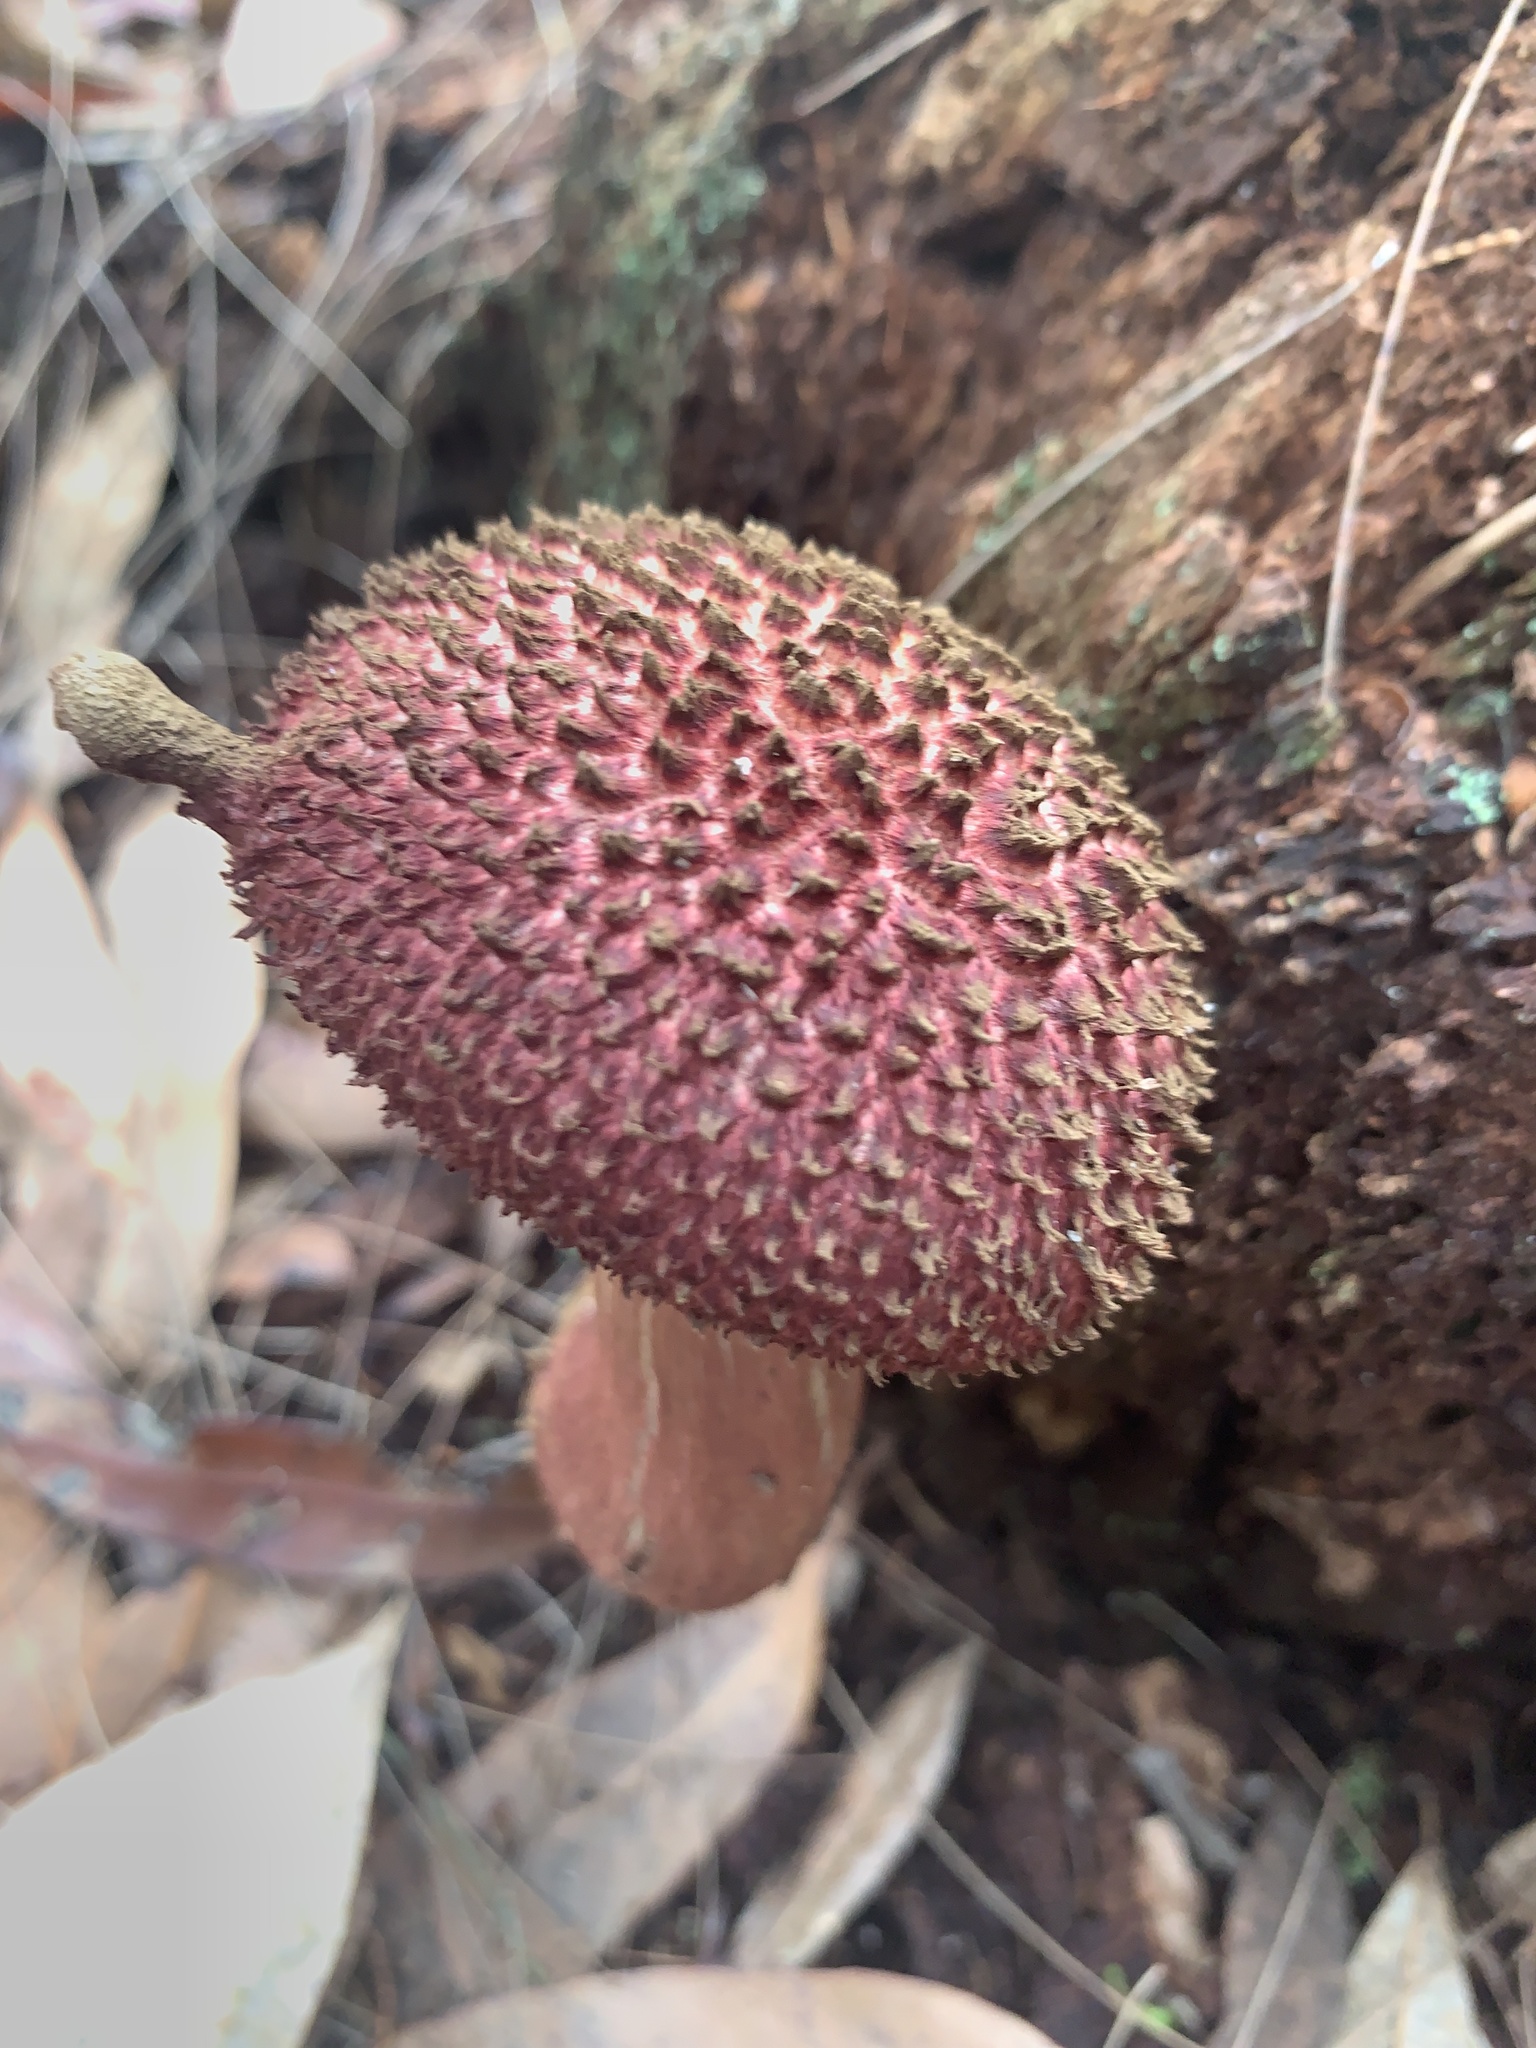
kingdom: Fungi
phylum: Basidiomycota
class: Agaricomycetes
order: Boletales
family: Boletaceae
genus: Boletellus
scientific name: Boletellus emodensis
